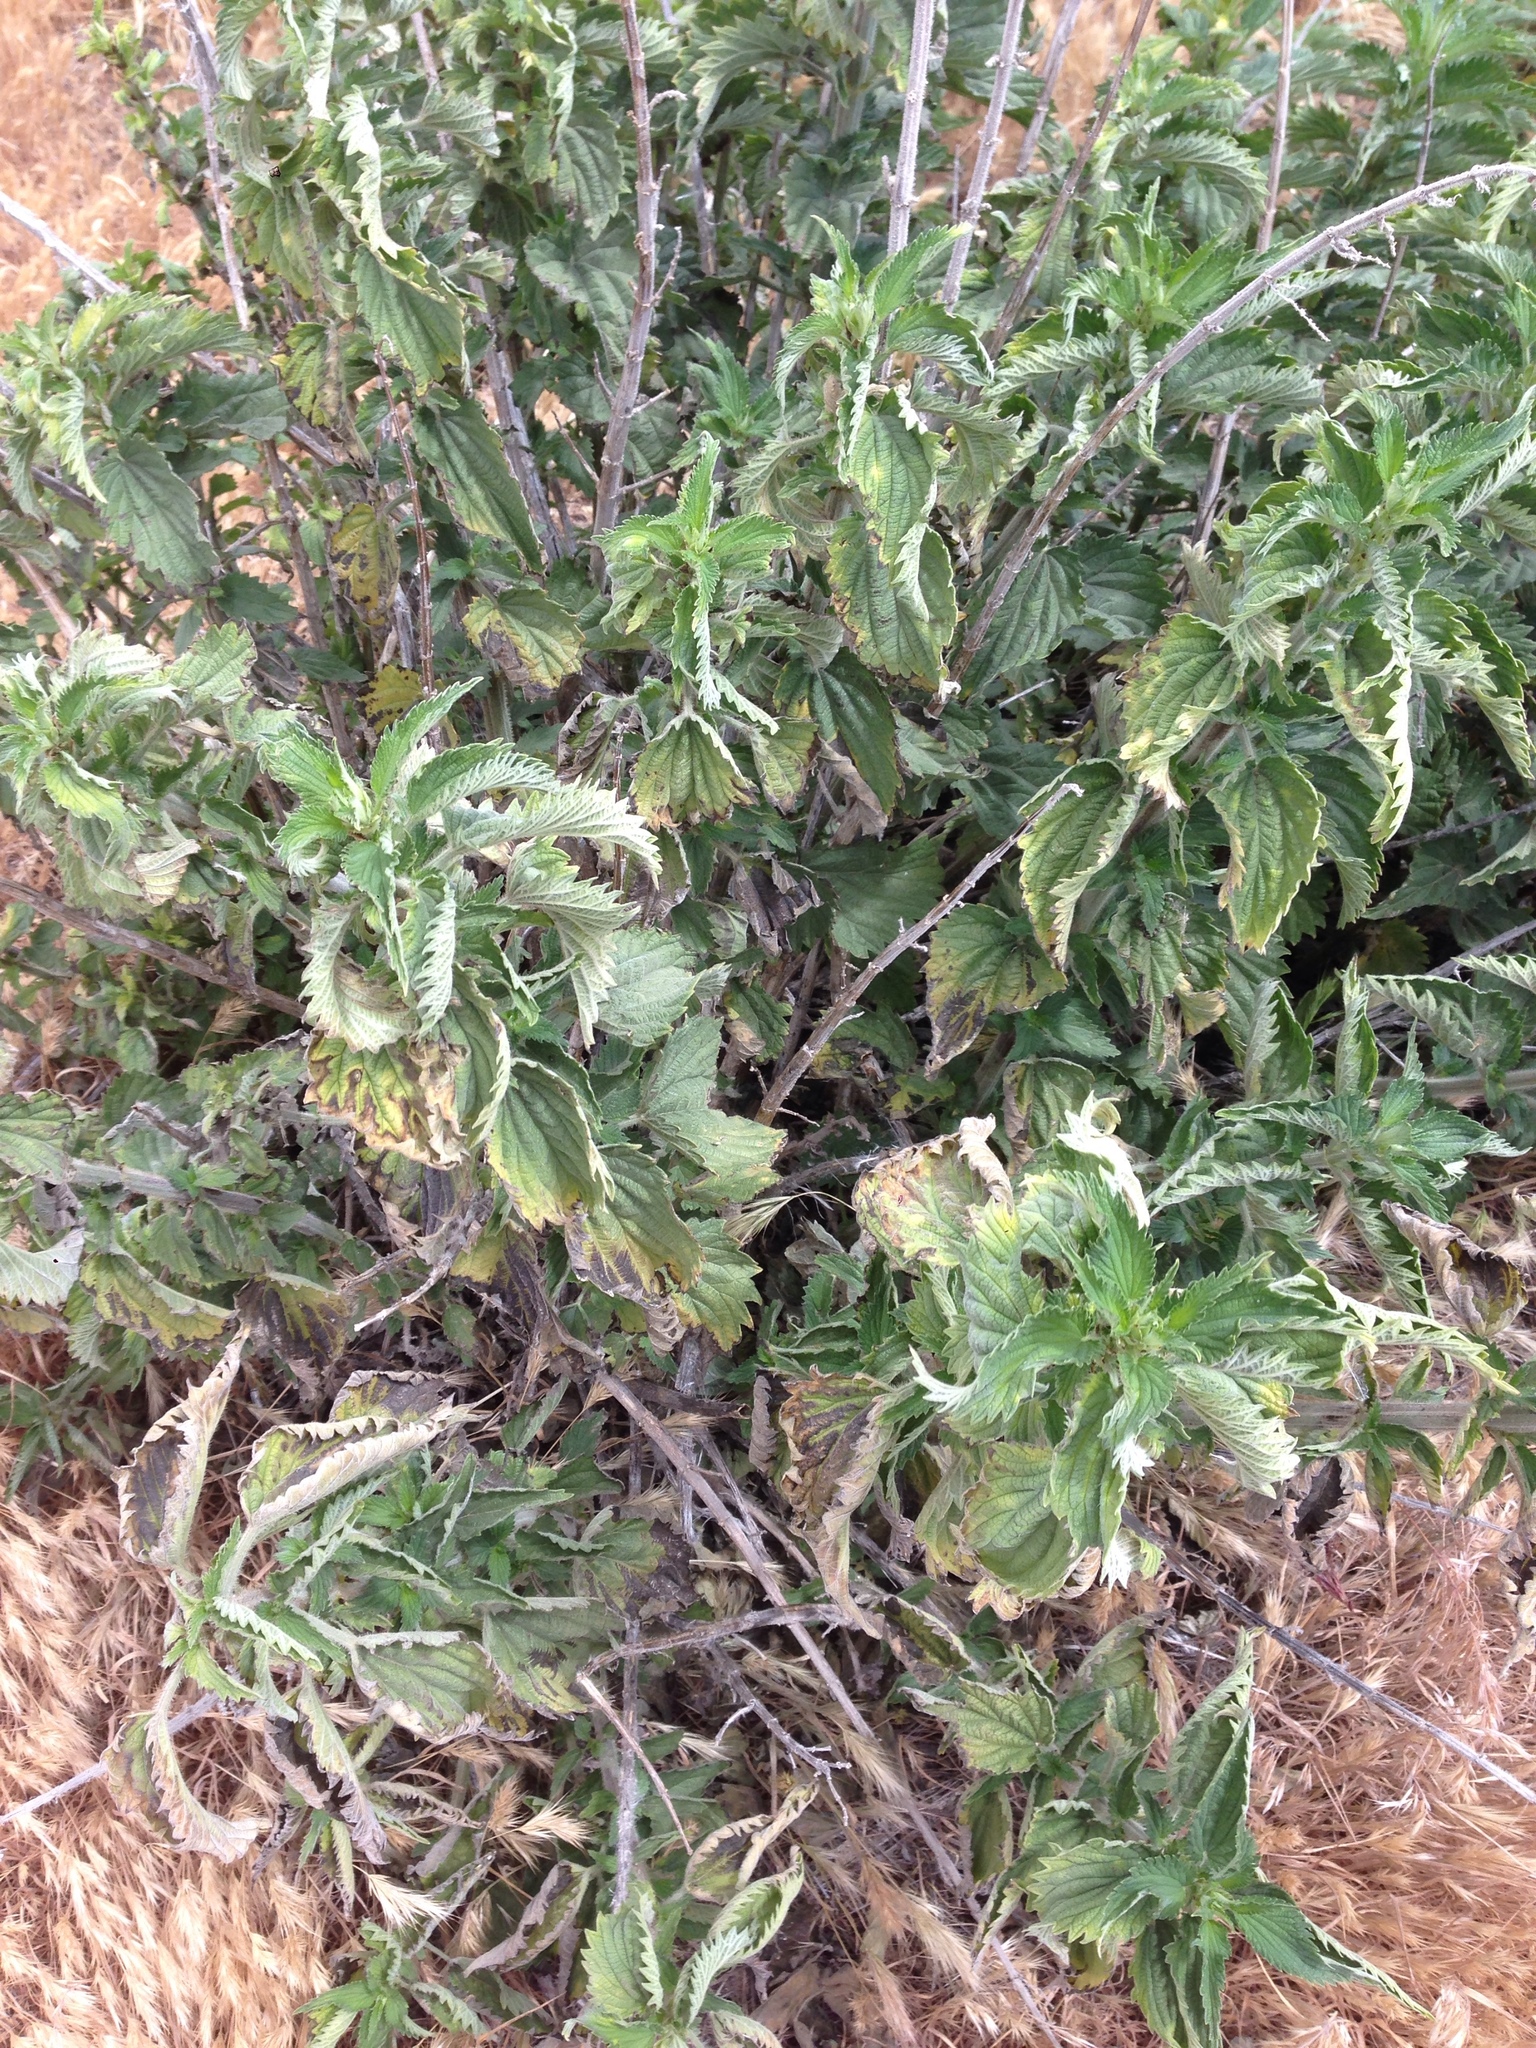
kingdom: Plantae
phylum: Tracheophyta
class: Magnoliopsida
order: Rosales
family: Urticaceae
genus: Urtica
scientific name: Urtica dioica
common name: Common nettle
